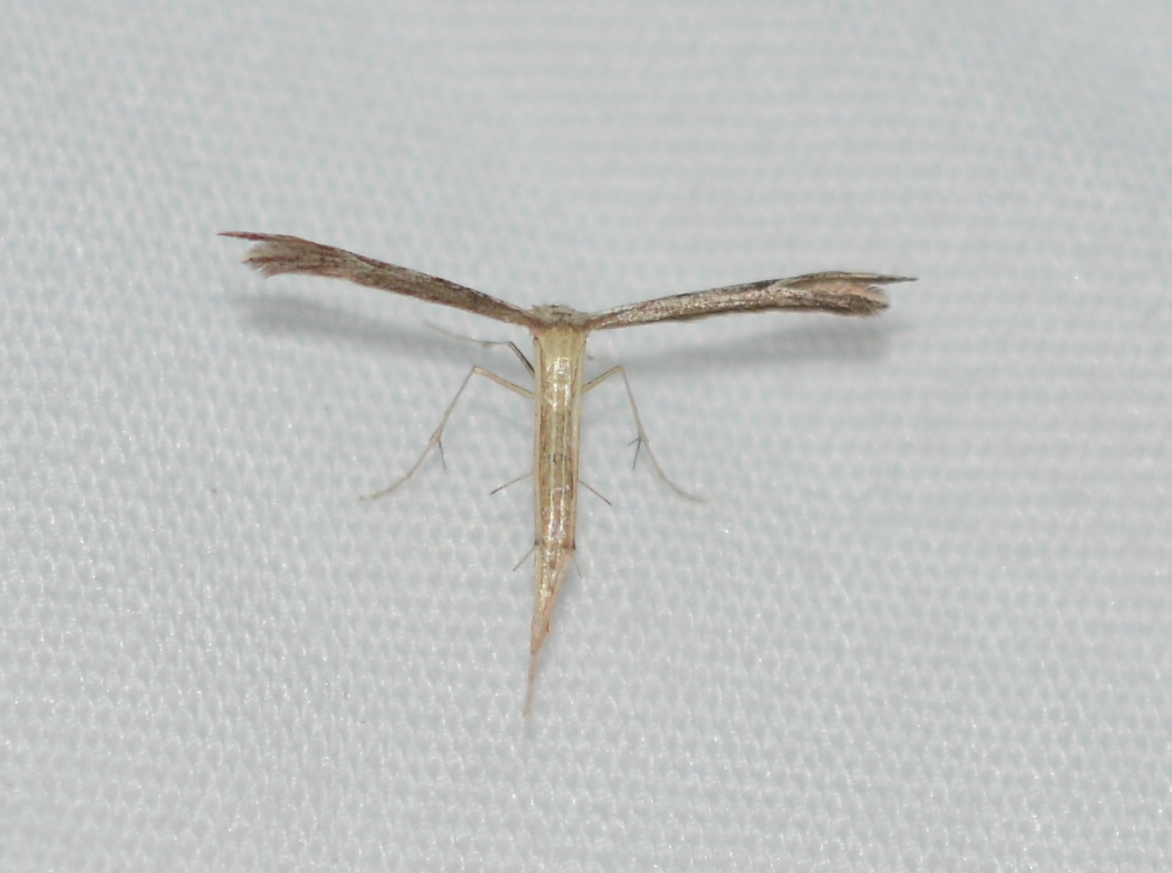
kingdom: Animalia
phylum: Arthropoda
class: Insecta
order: Lepidoptera
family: Pterophoridae
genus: Pselnophorus
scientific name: Pselnophorus belfragei
